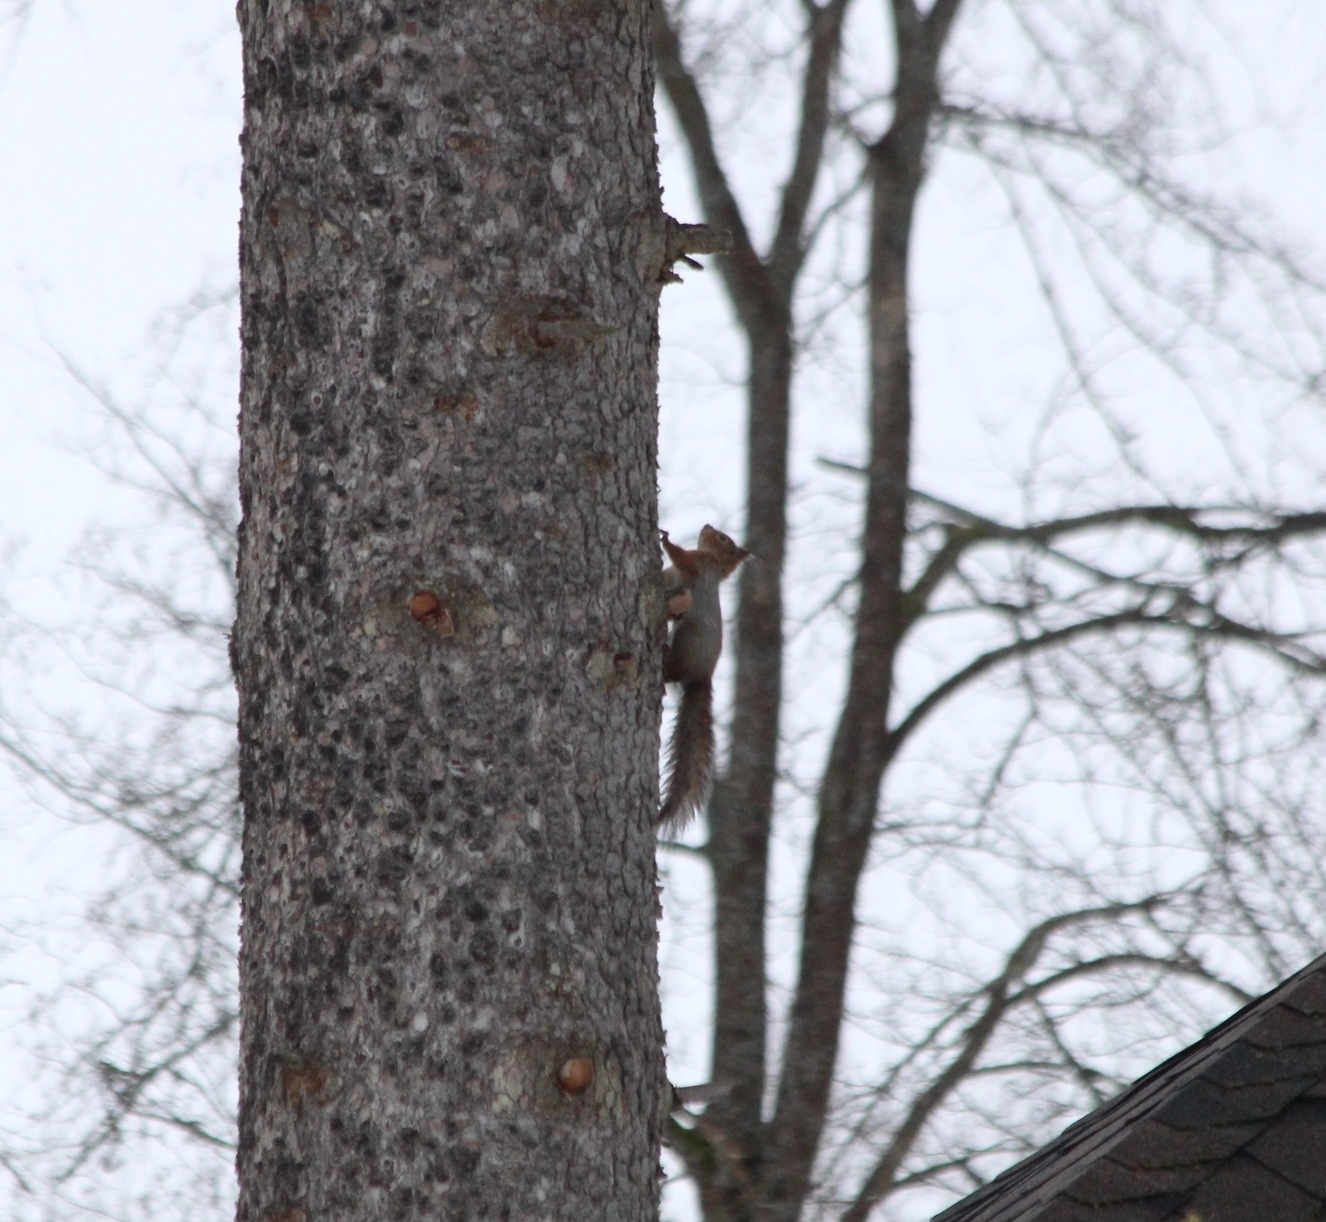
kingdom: Animalia
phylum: Chordata
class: Mammalia
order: Rodentia
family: Sciuridae
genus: Sciurus
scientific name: Sciurus vulgaris
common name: Eurasian red squirrel
